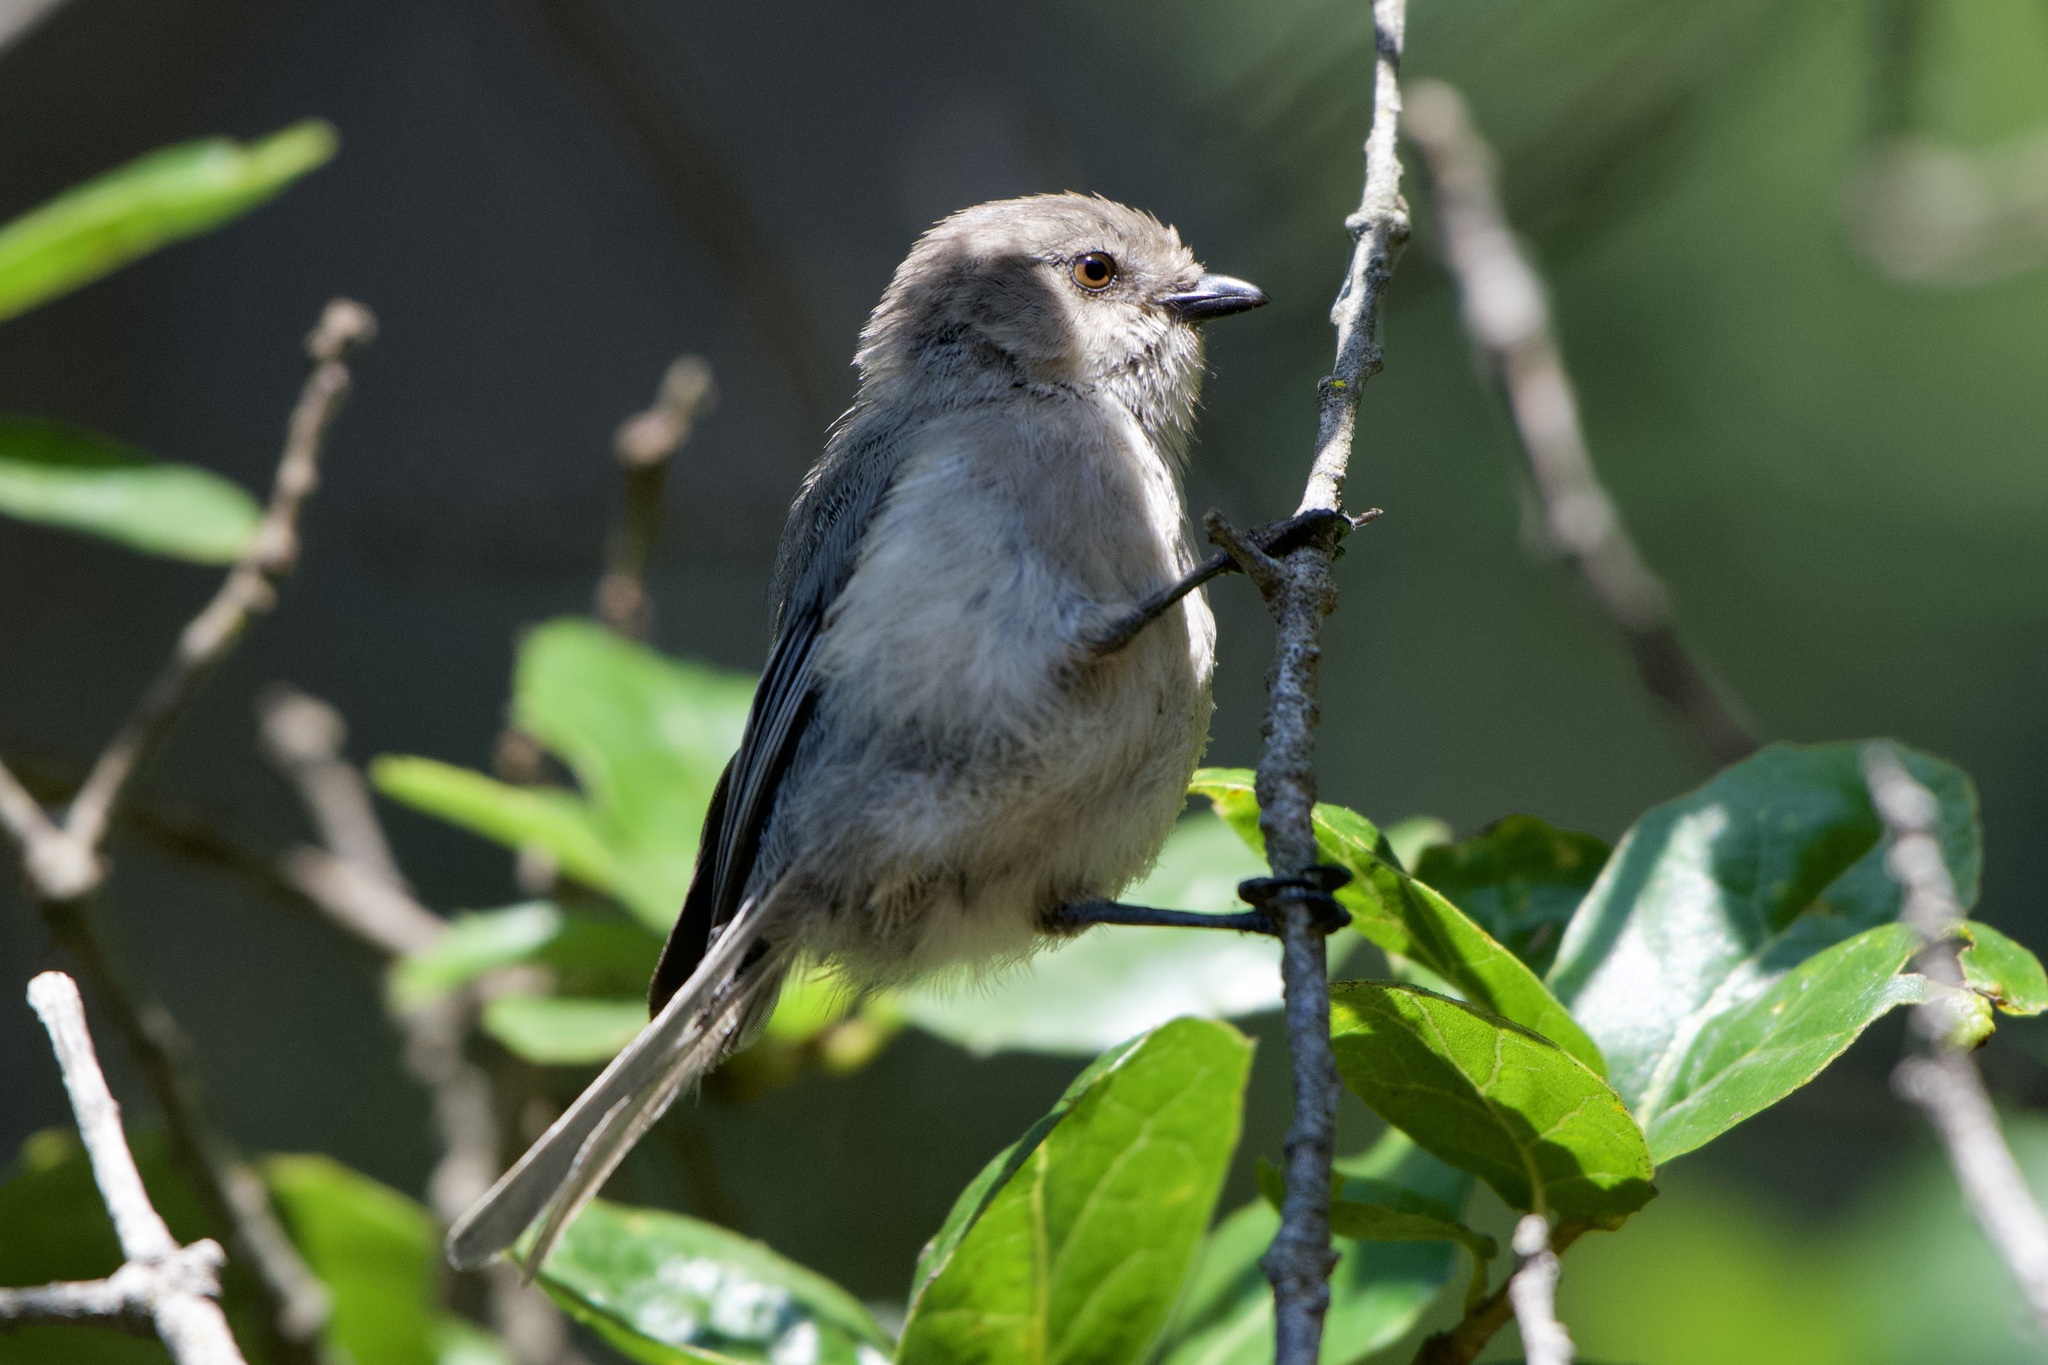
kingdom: Animalia
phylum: Chordata
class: Aves
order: Passeriformes
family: Aegithalidae
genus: Psaltriparus
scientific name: Psaltriparus minimus
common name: American bushtit
